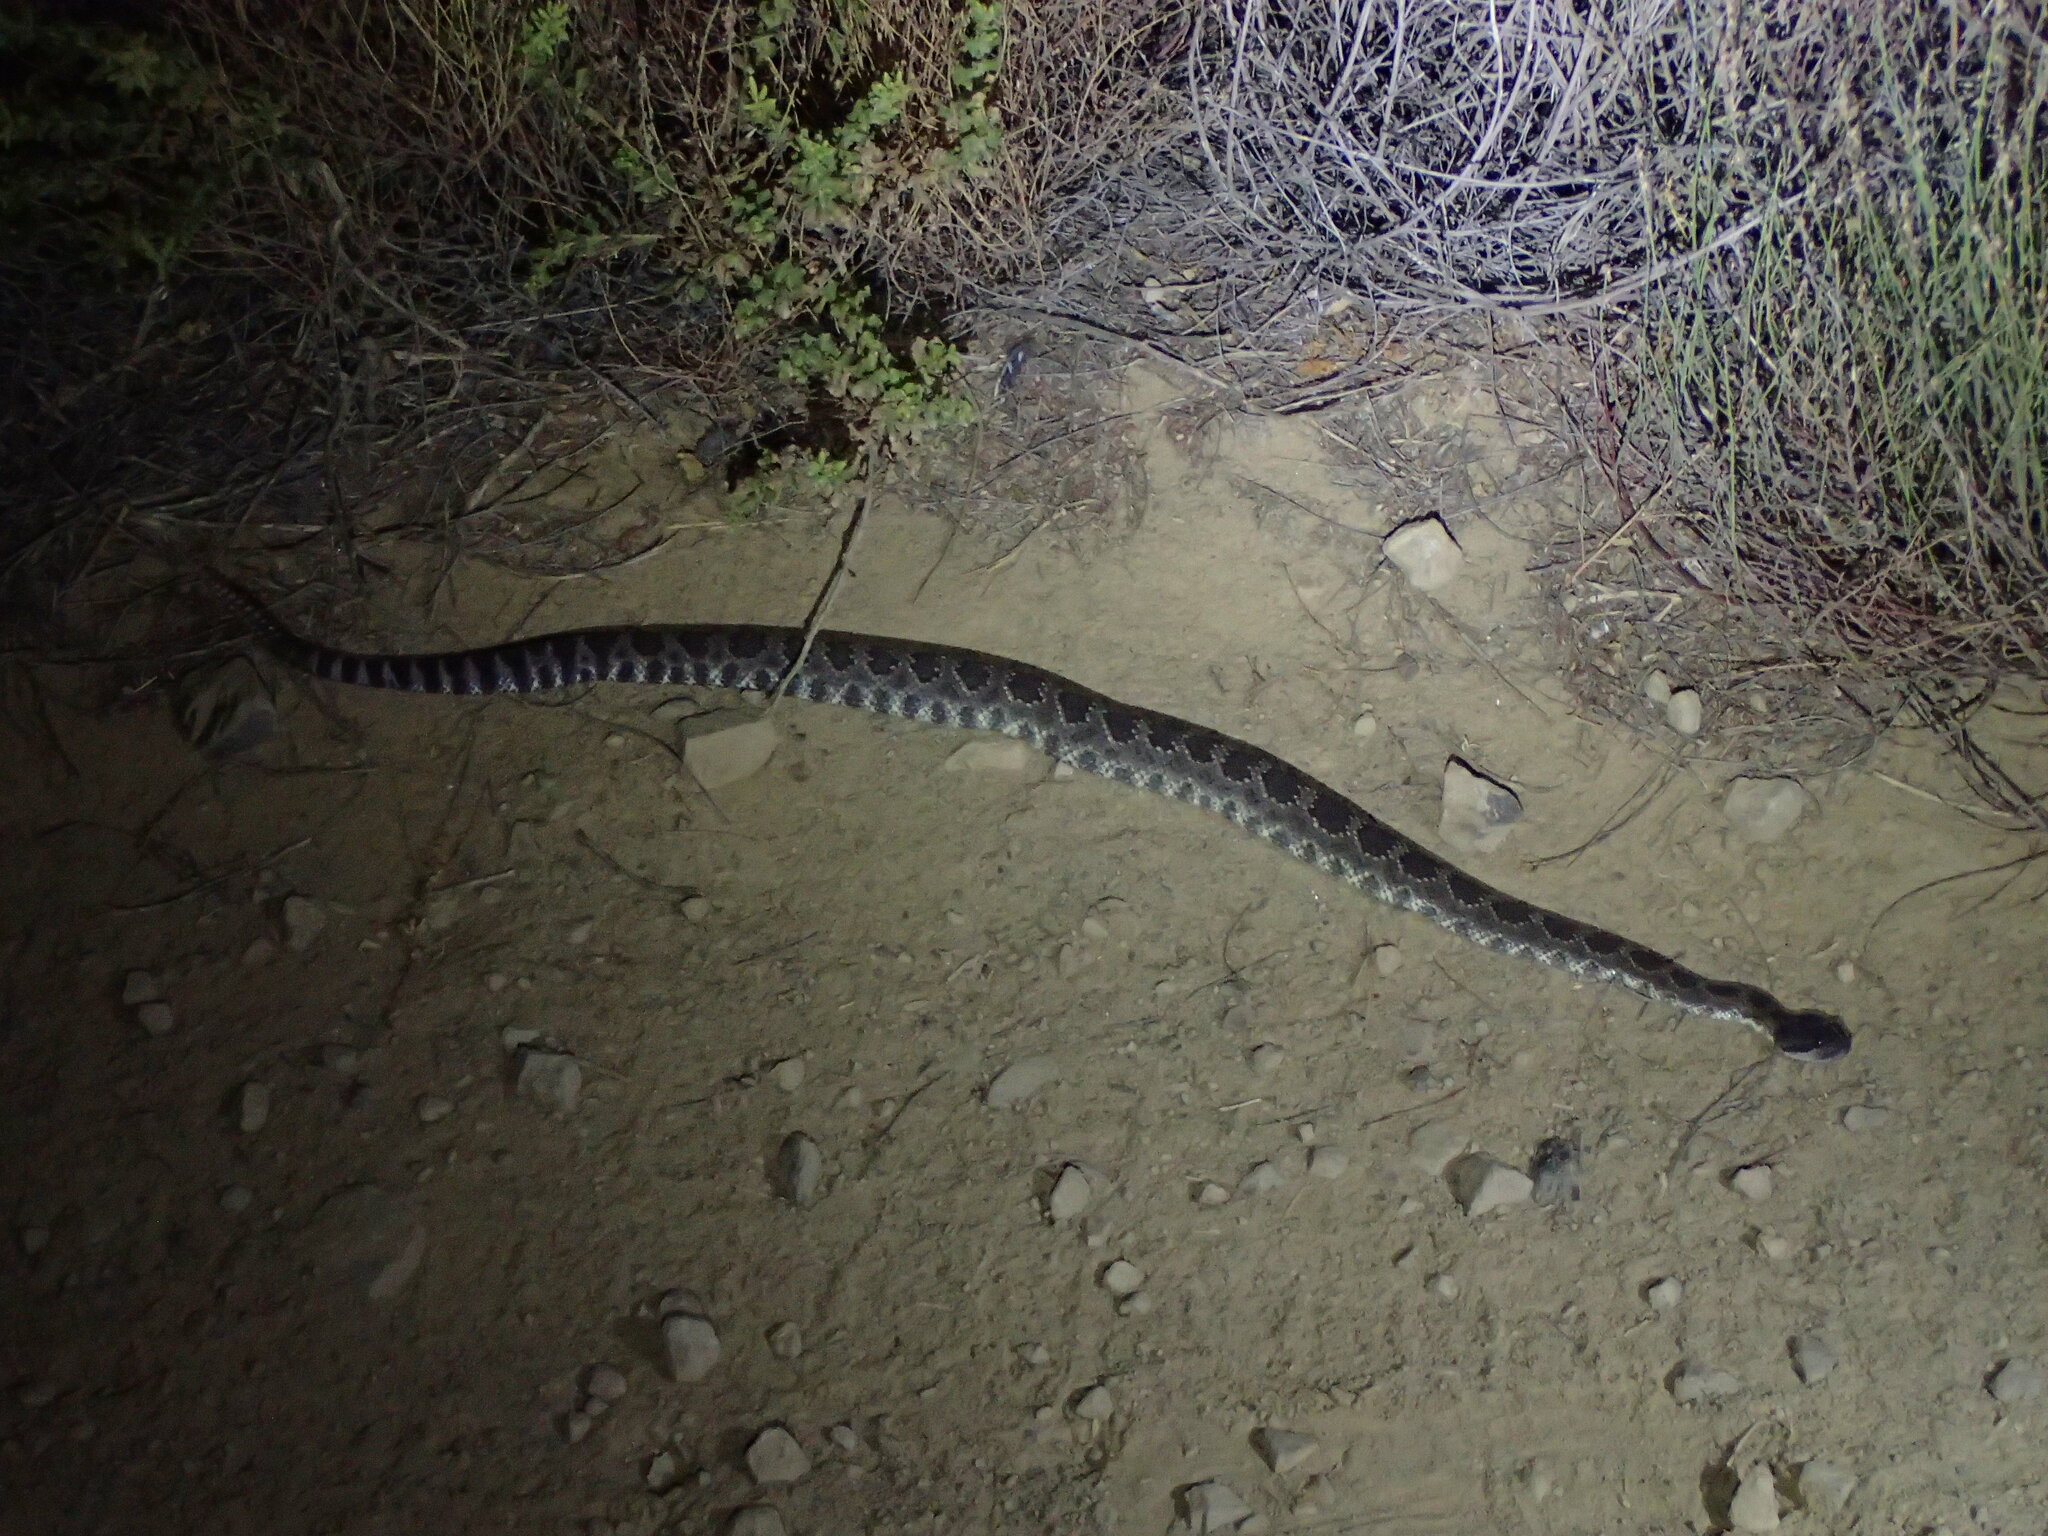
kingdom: Animalia
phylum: Chordata
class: Squamata
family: Viperidae
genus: Crotalus
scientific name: Crotalus oreganus
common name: Abyssus
